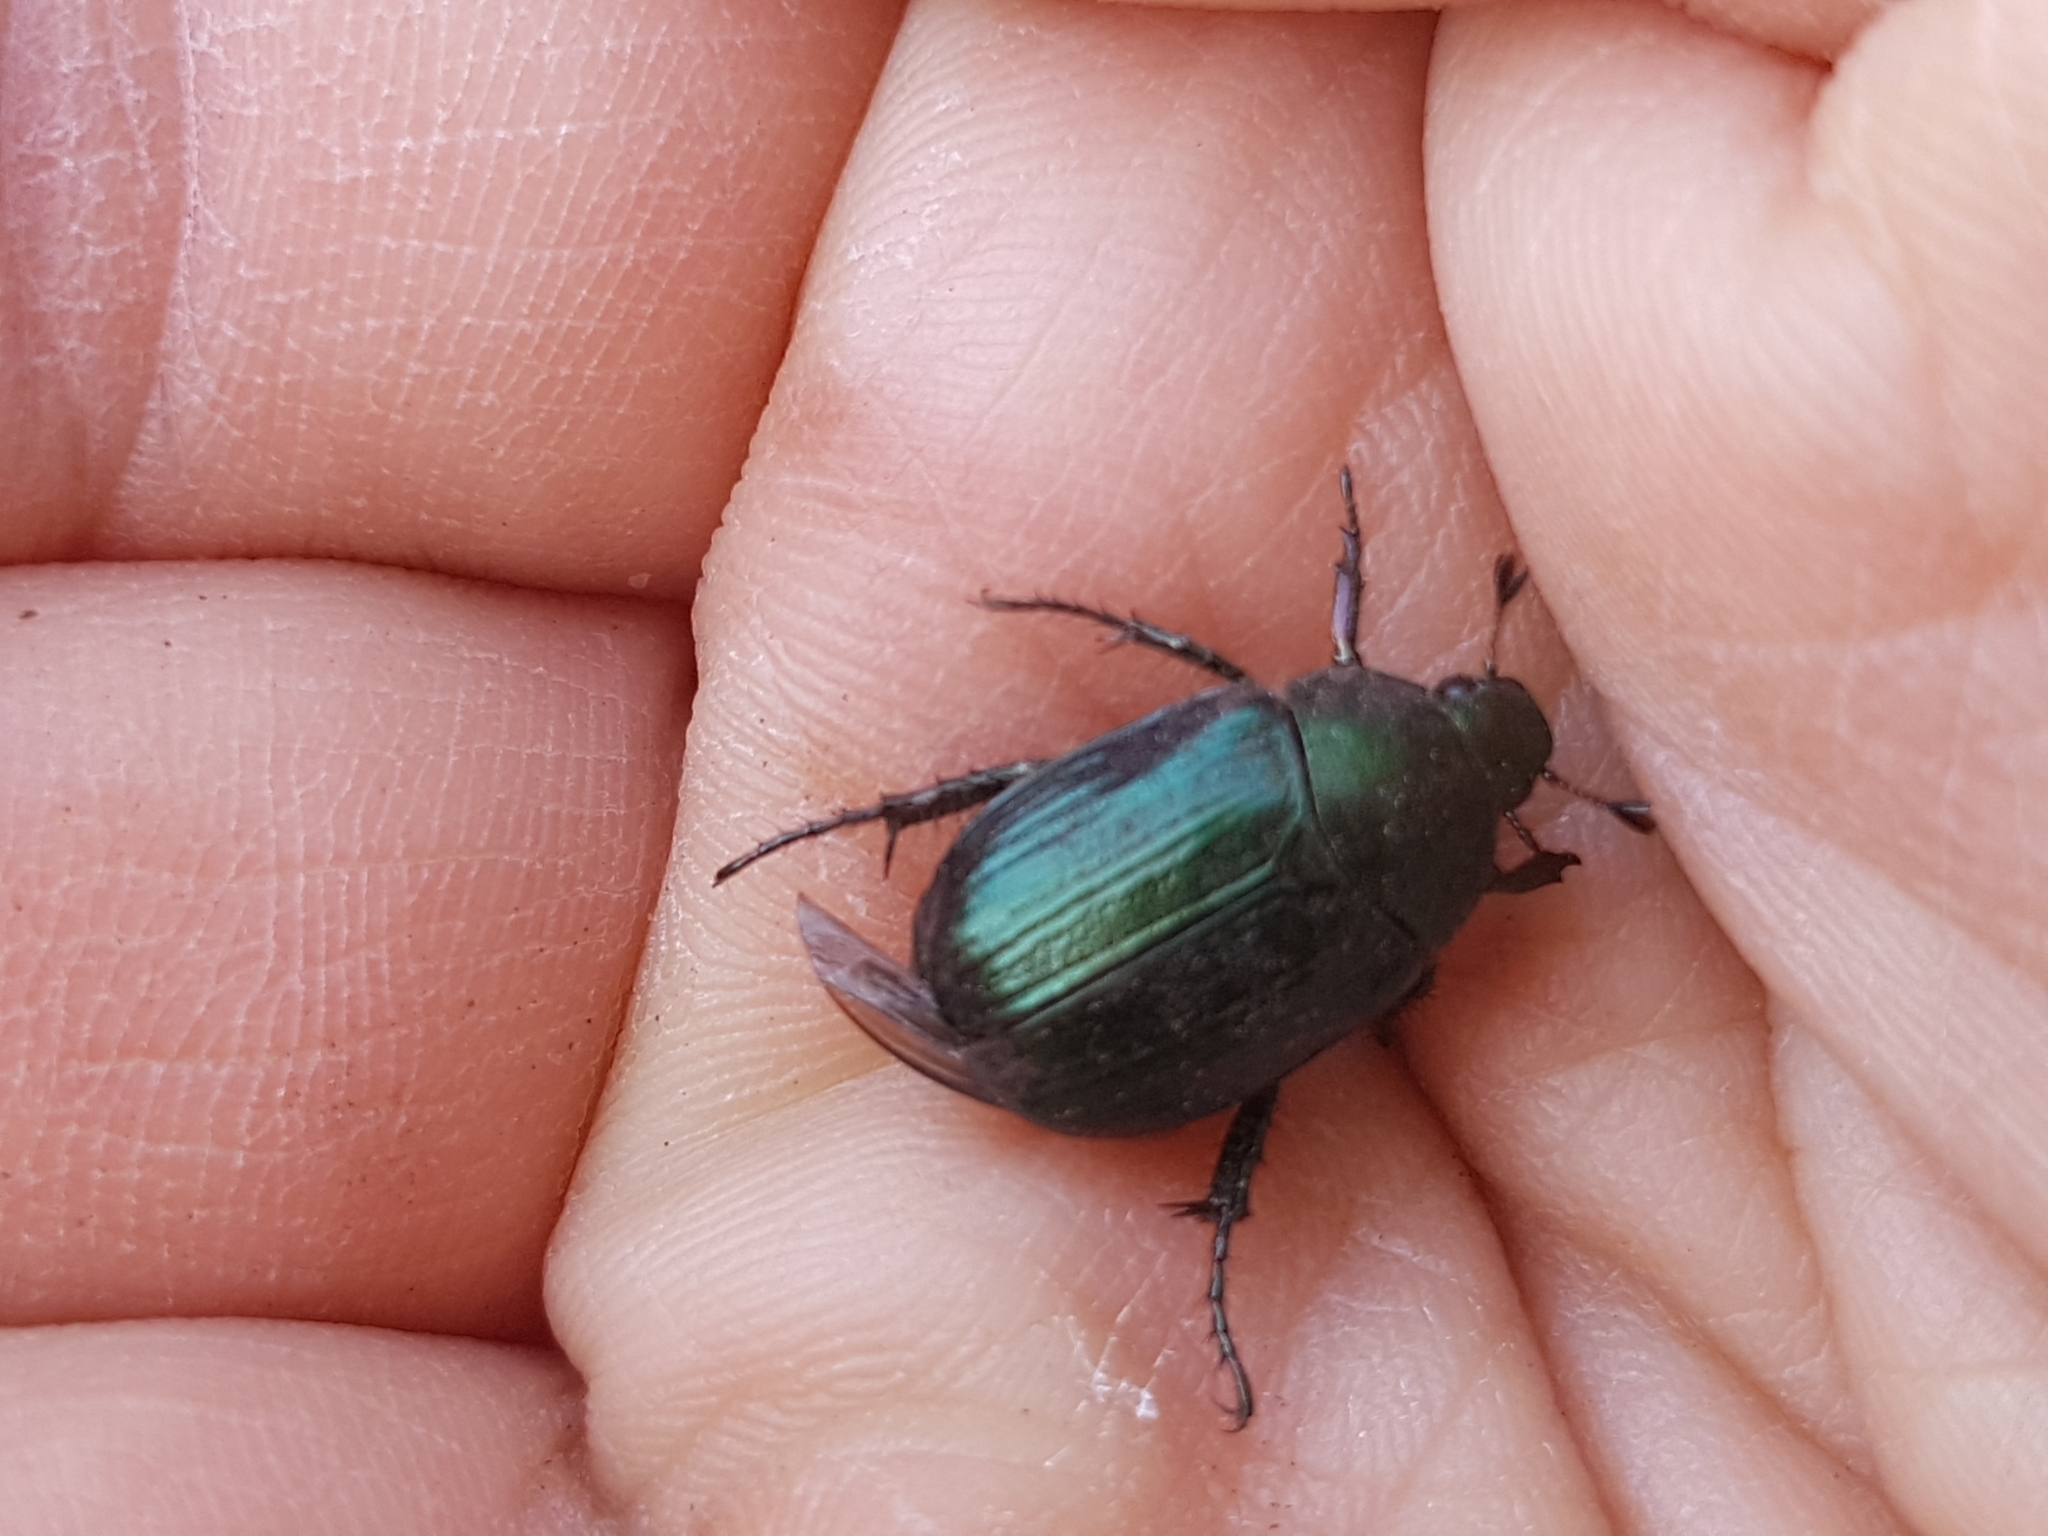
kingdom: Animalia
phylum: Arthropoda
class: Insecta
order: Coleoptera
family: Scarabaeidae
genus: Anomala
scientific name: Anomala dubia
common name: Dune chafer
